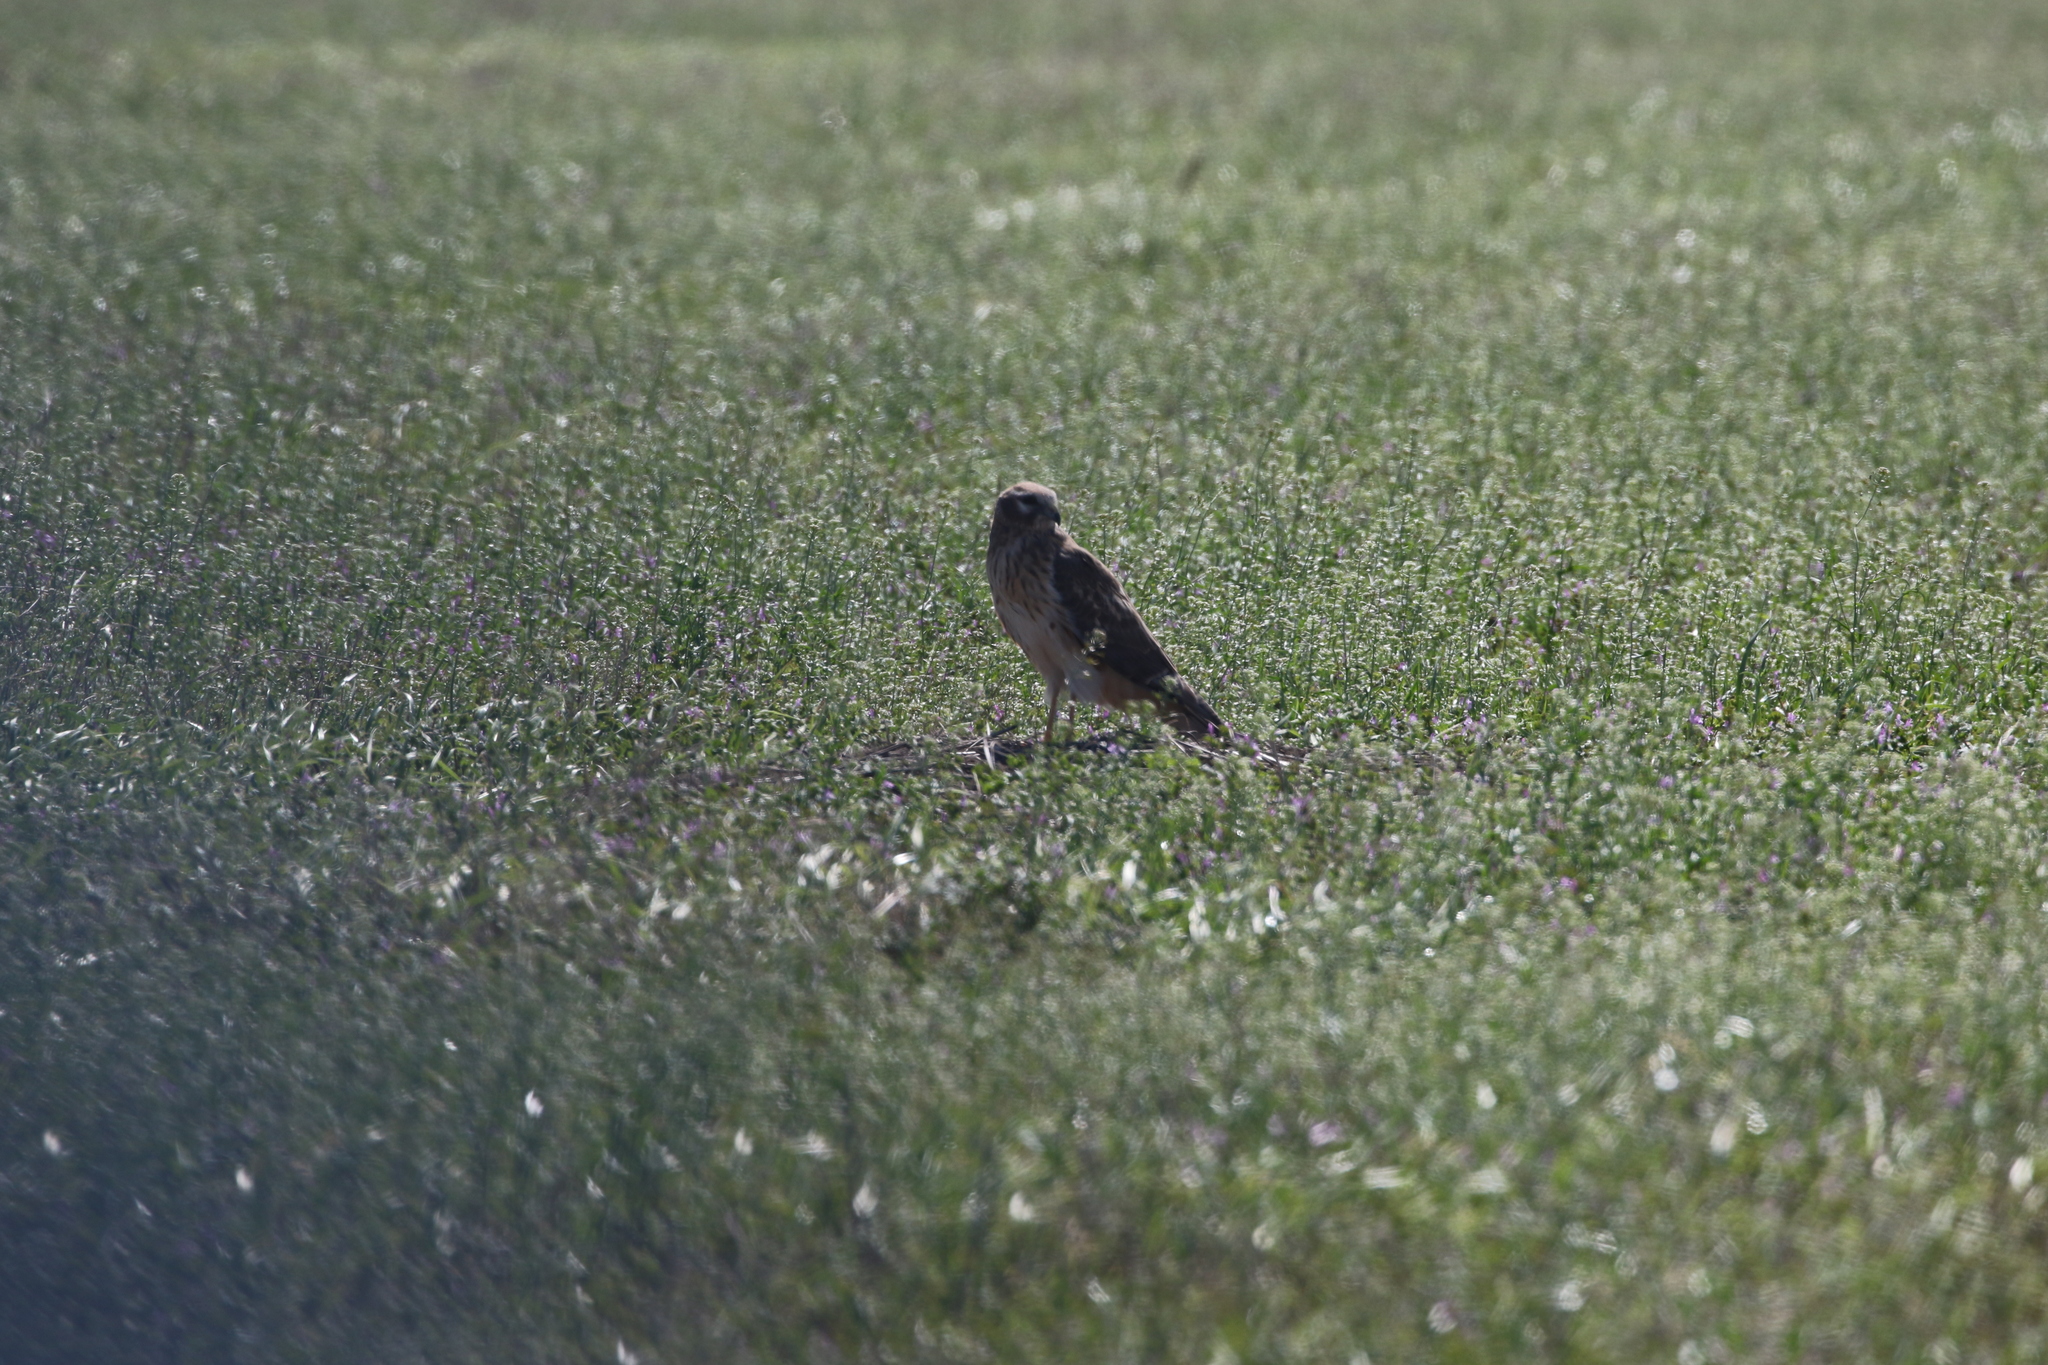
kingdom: Animalia
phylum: Chordata
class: Aves
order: Accipitriformes
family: Accipitridae
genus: Circus
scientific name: Circus cyaneus
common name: Hen harrier
